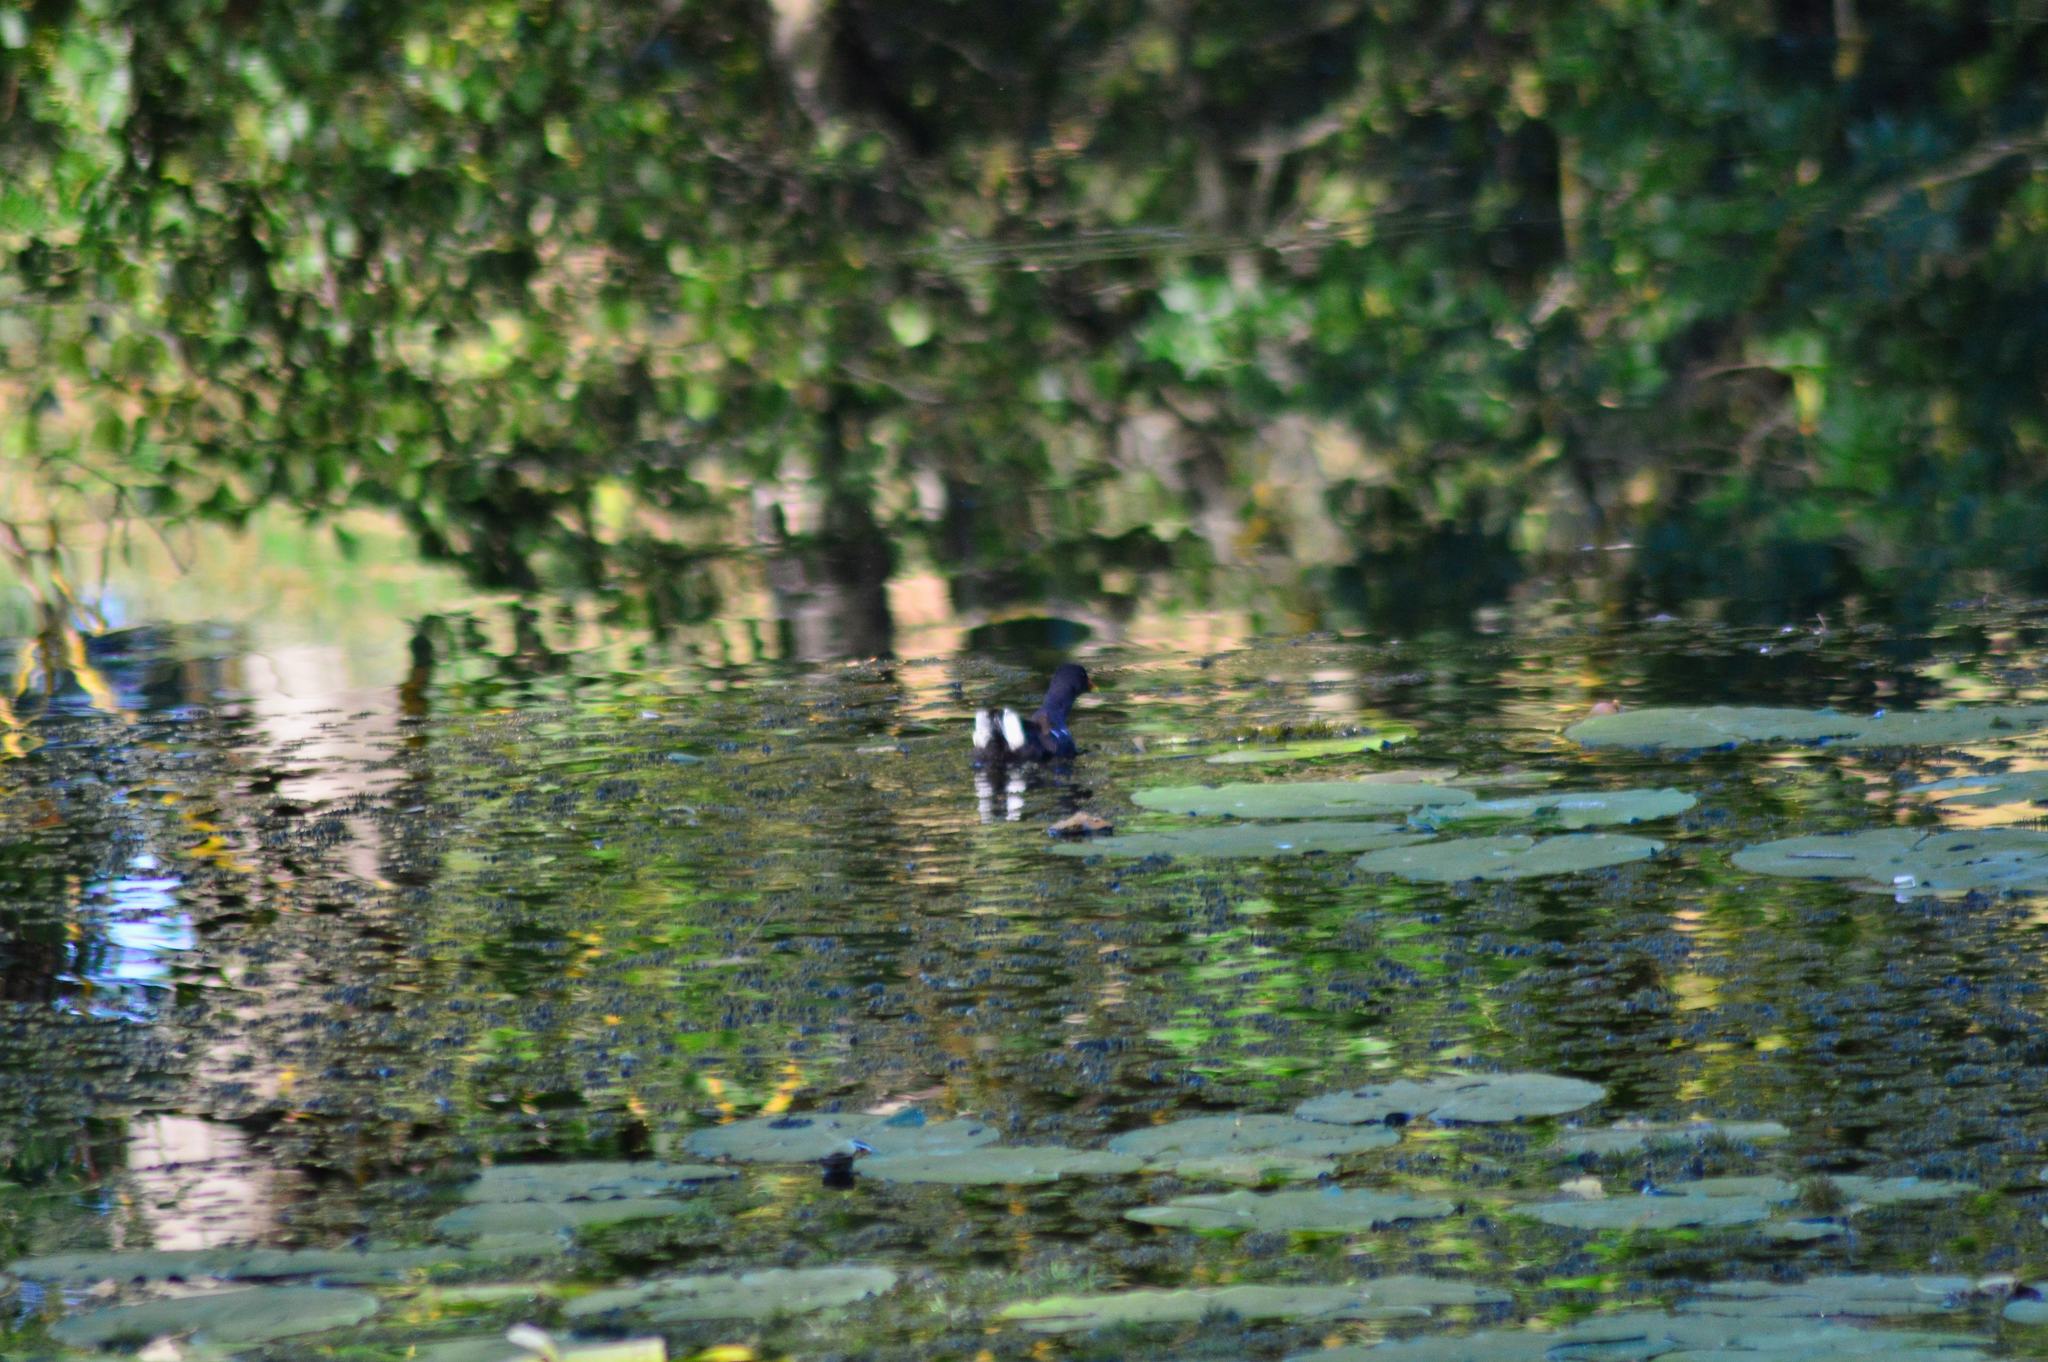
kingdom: Animalia
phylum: Chordata
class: Aves
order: Gruiformes
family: Rallidae
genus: Gallinula
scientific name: Gallinula chloropus
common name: Common moorhen
